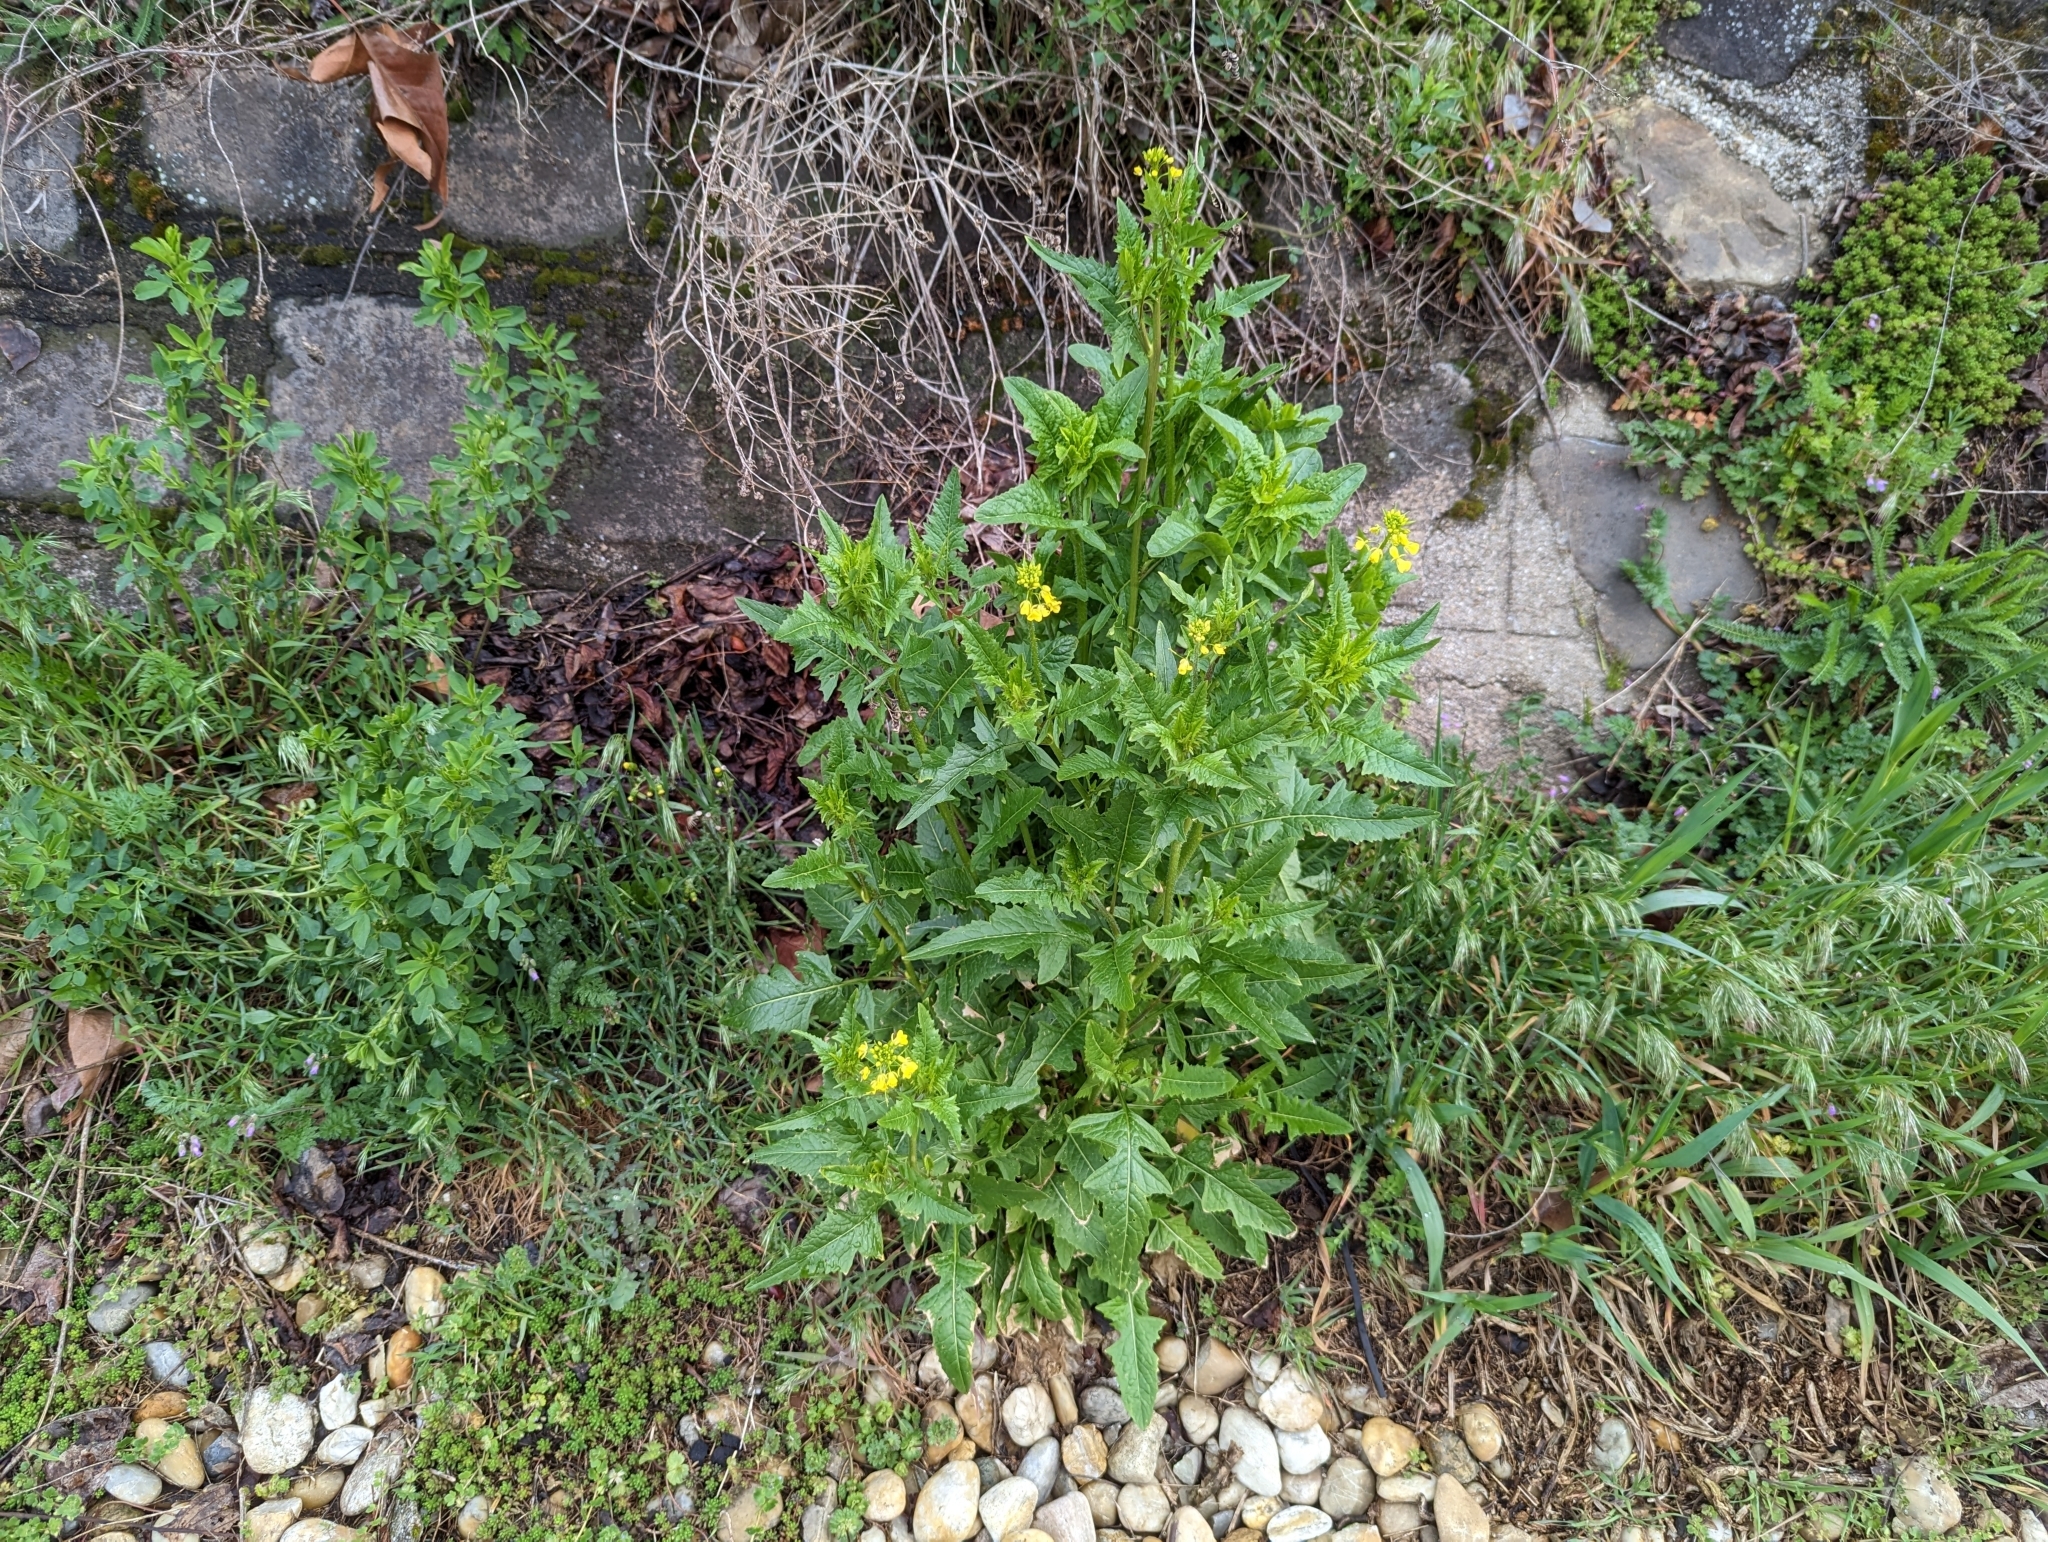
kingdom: Plantae
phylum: Tracheophyta
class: Magnoliopsida
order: Brassicales
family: Brassicaceae
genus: Sisymbrium
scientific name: Sisymbrium loeselii
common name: False london-rocket
